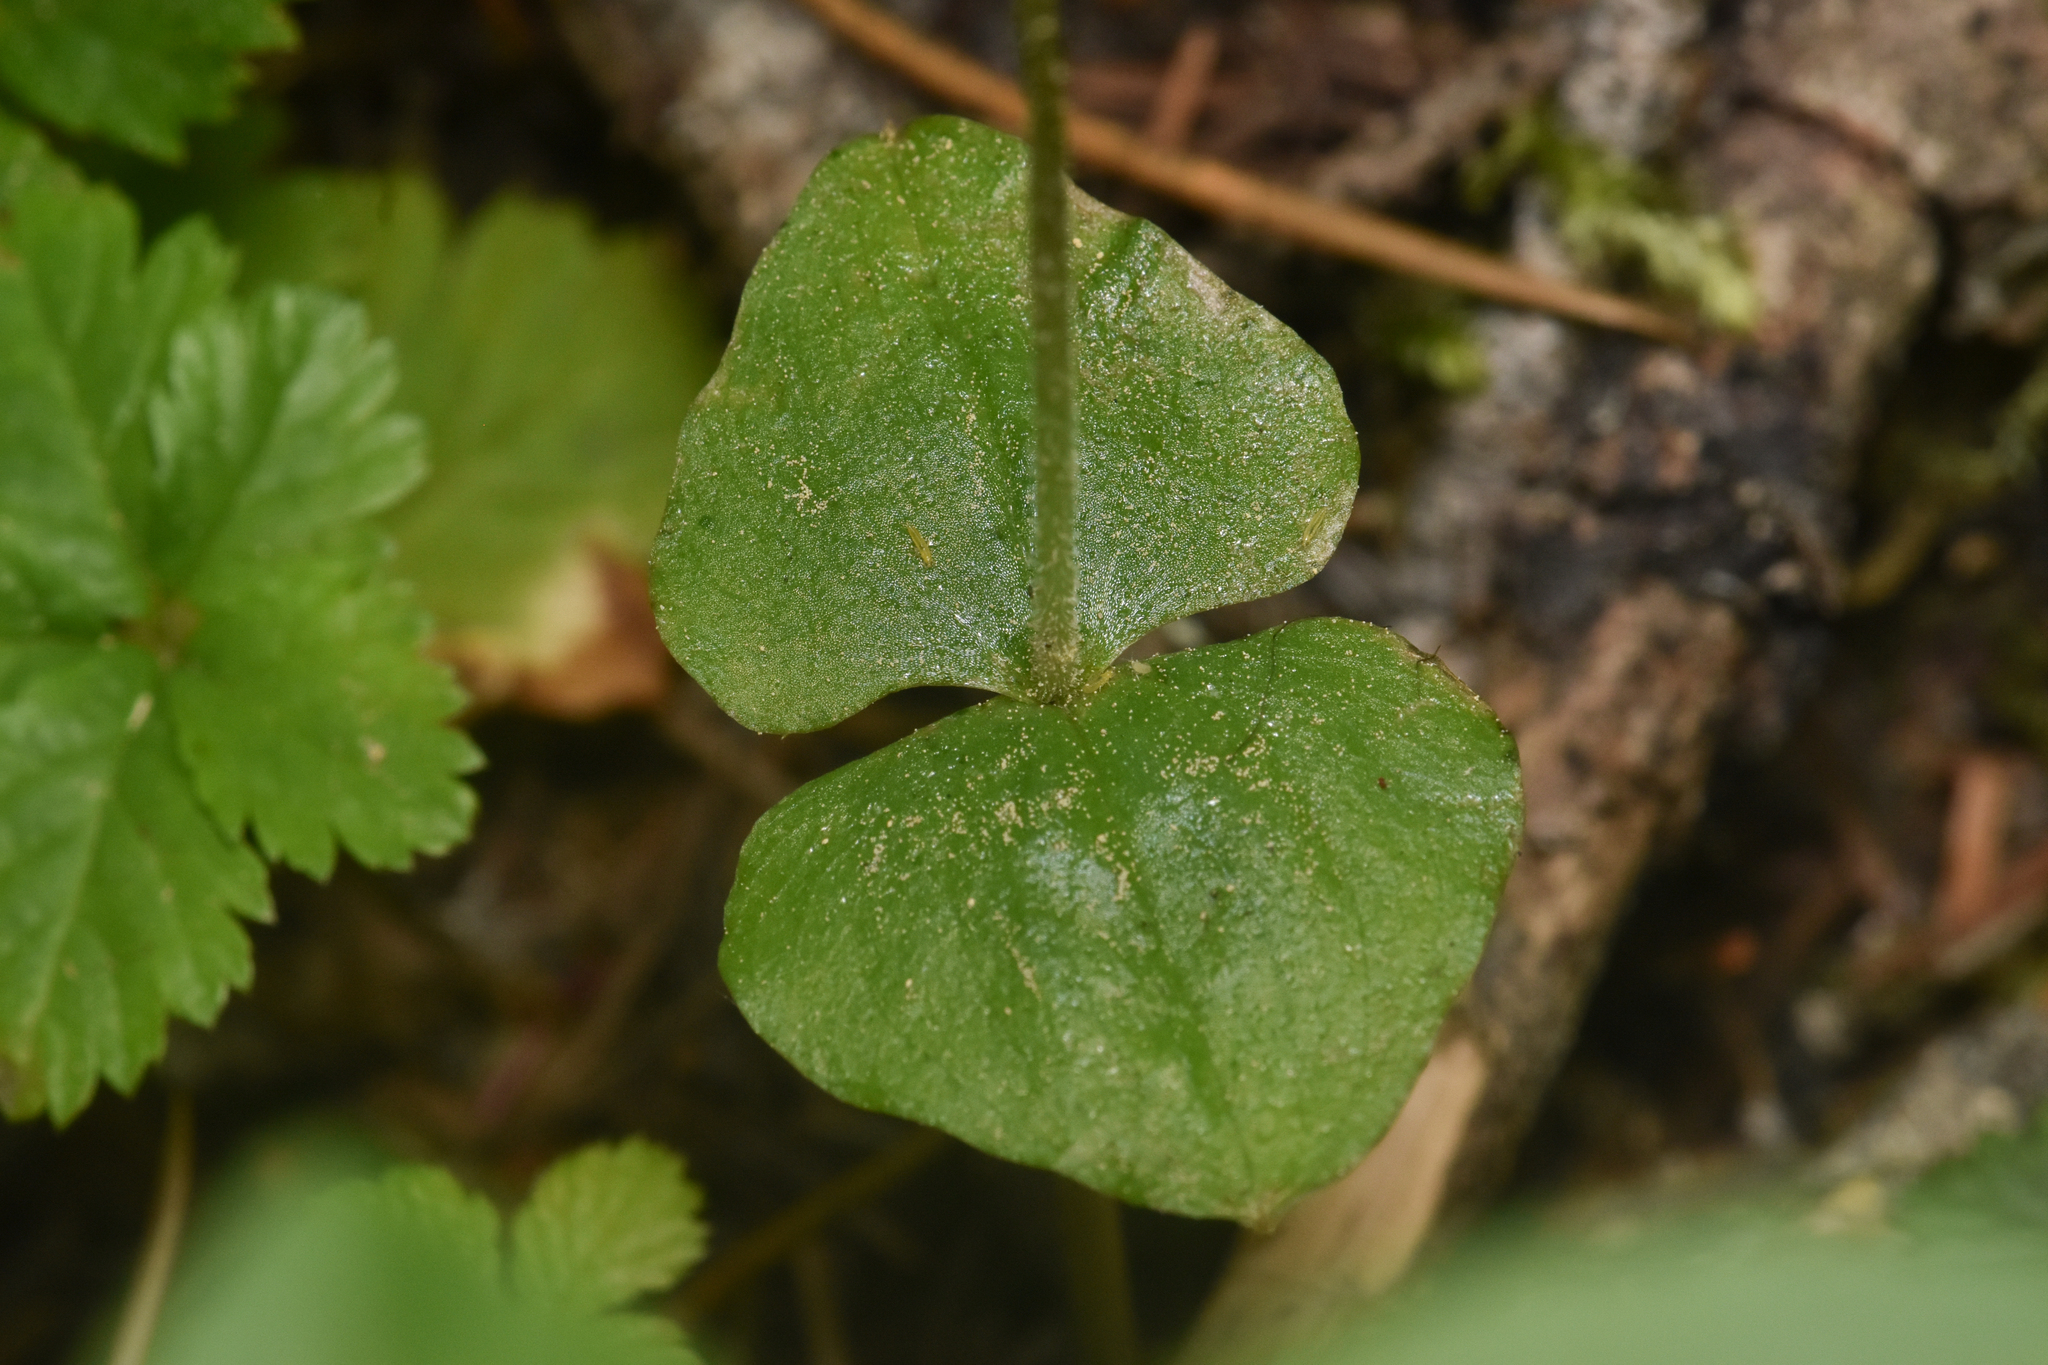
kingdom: Plantae
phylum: Tracheophyta
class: Liliopsida
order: Asparagales
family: Orchidaceae
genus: Neottia
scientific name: Neottia cordata
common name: Lesser twayblade
